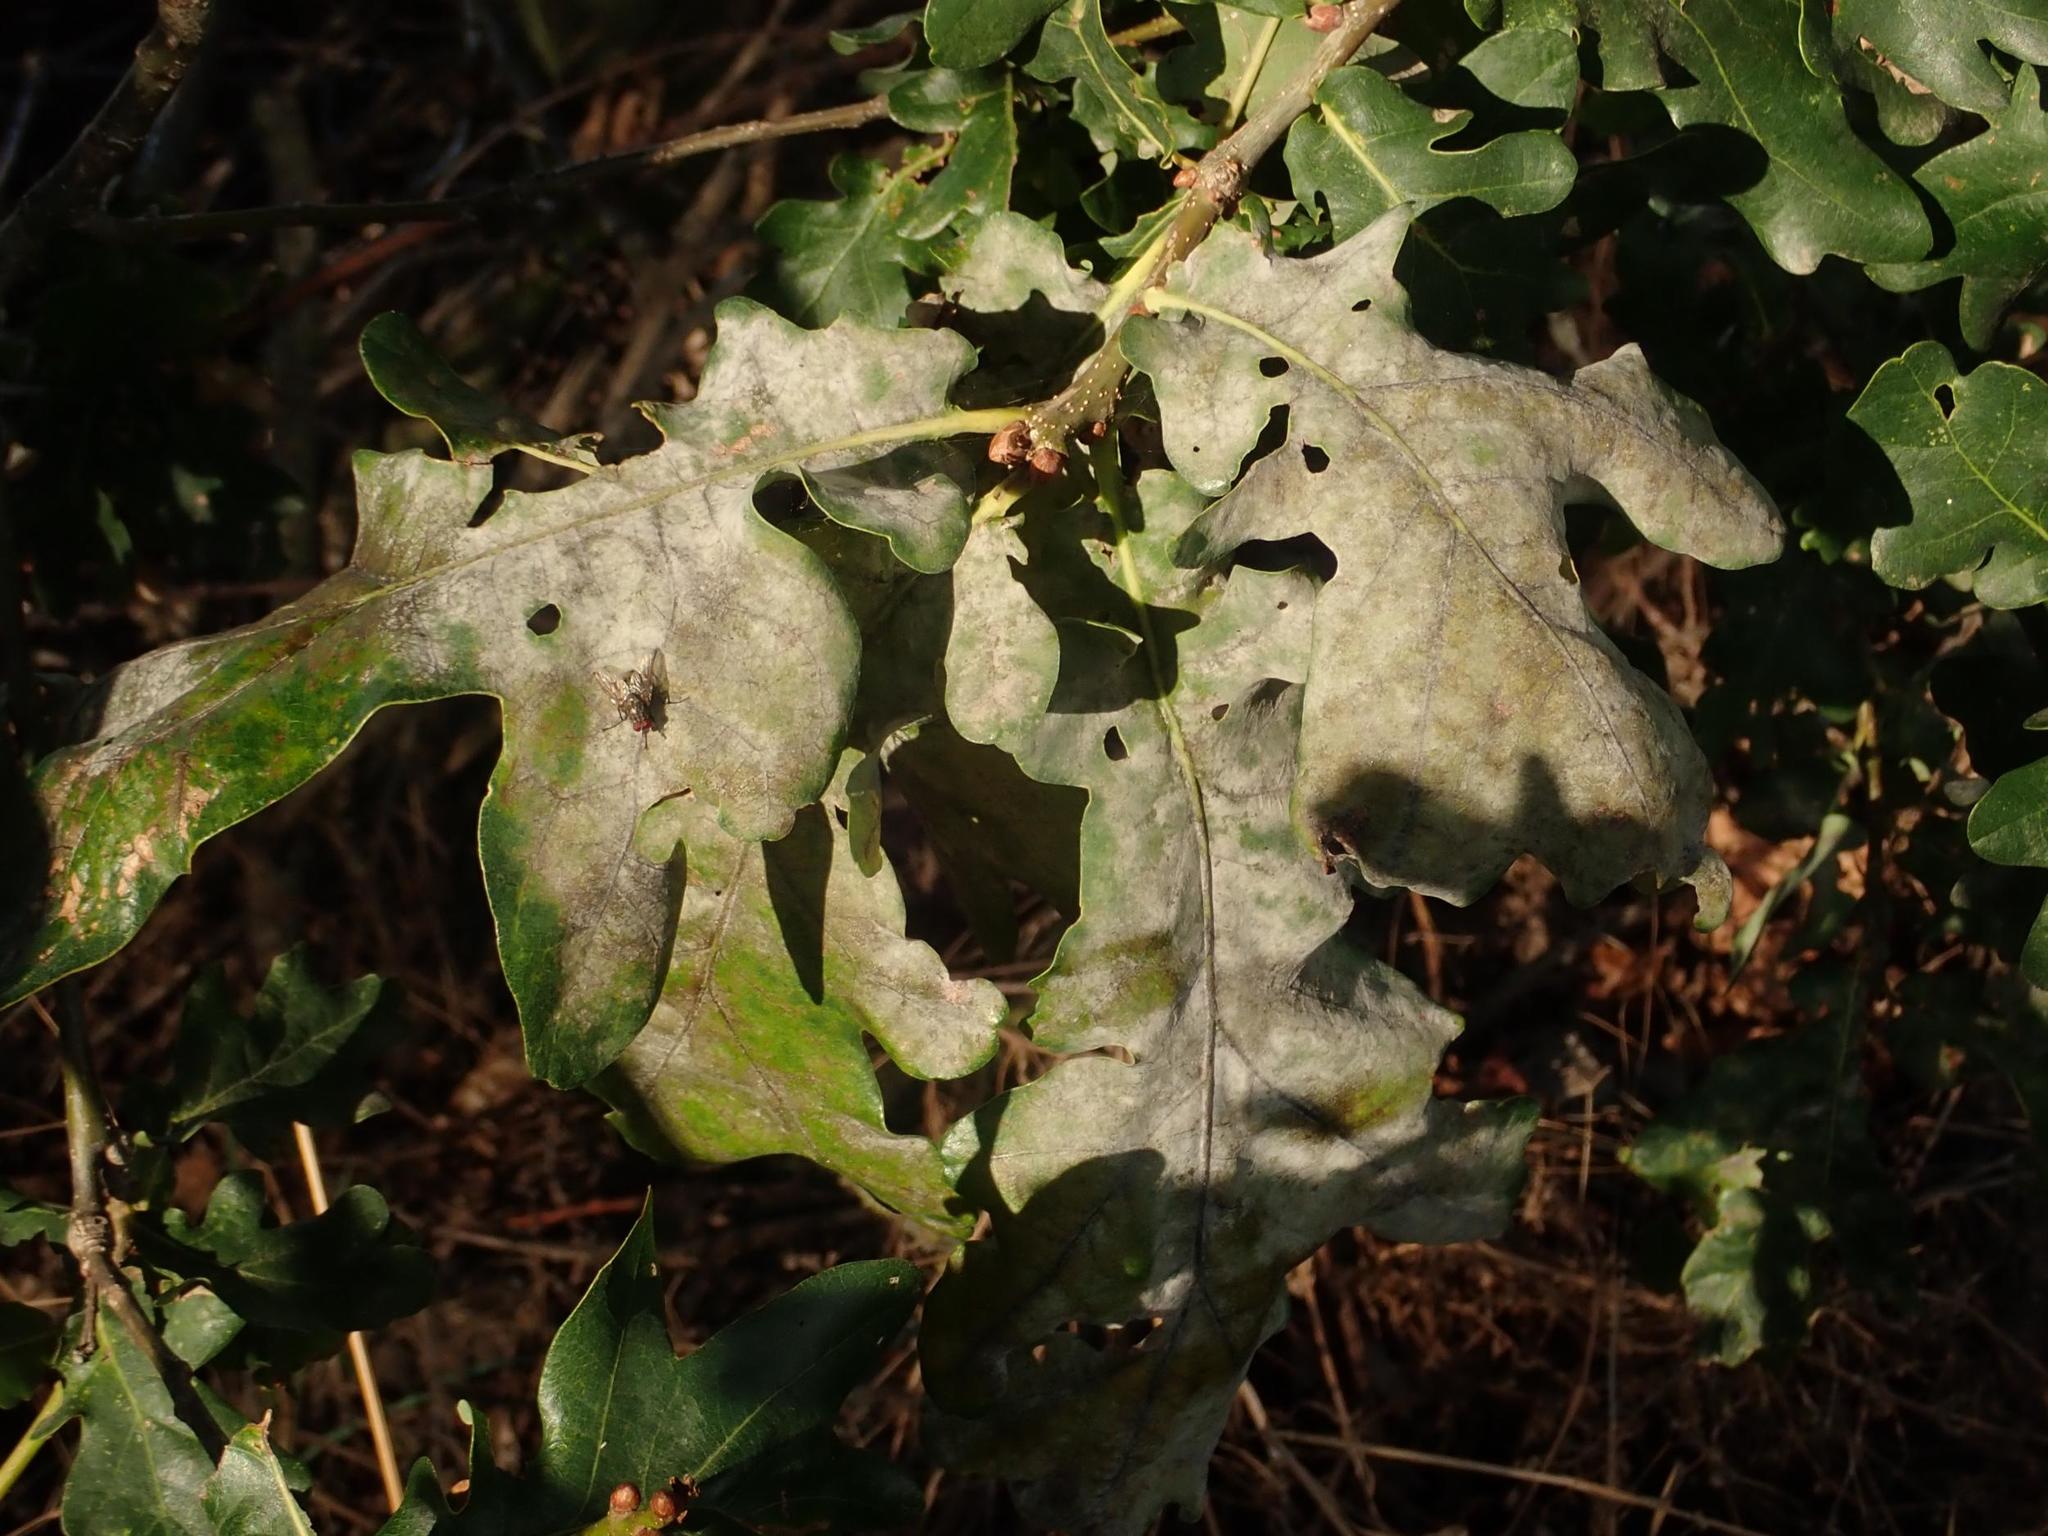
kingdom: Fungi
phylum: Ascomycota
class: Leotiomycetes
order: Helotiales
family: Erysiphaceae
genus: Erysiphe
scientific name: Erysiphe
